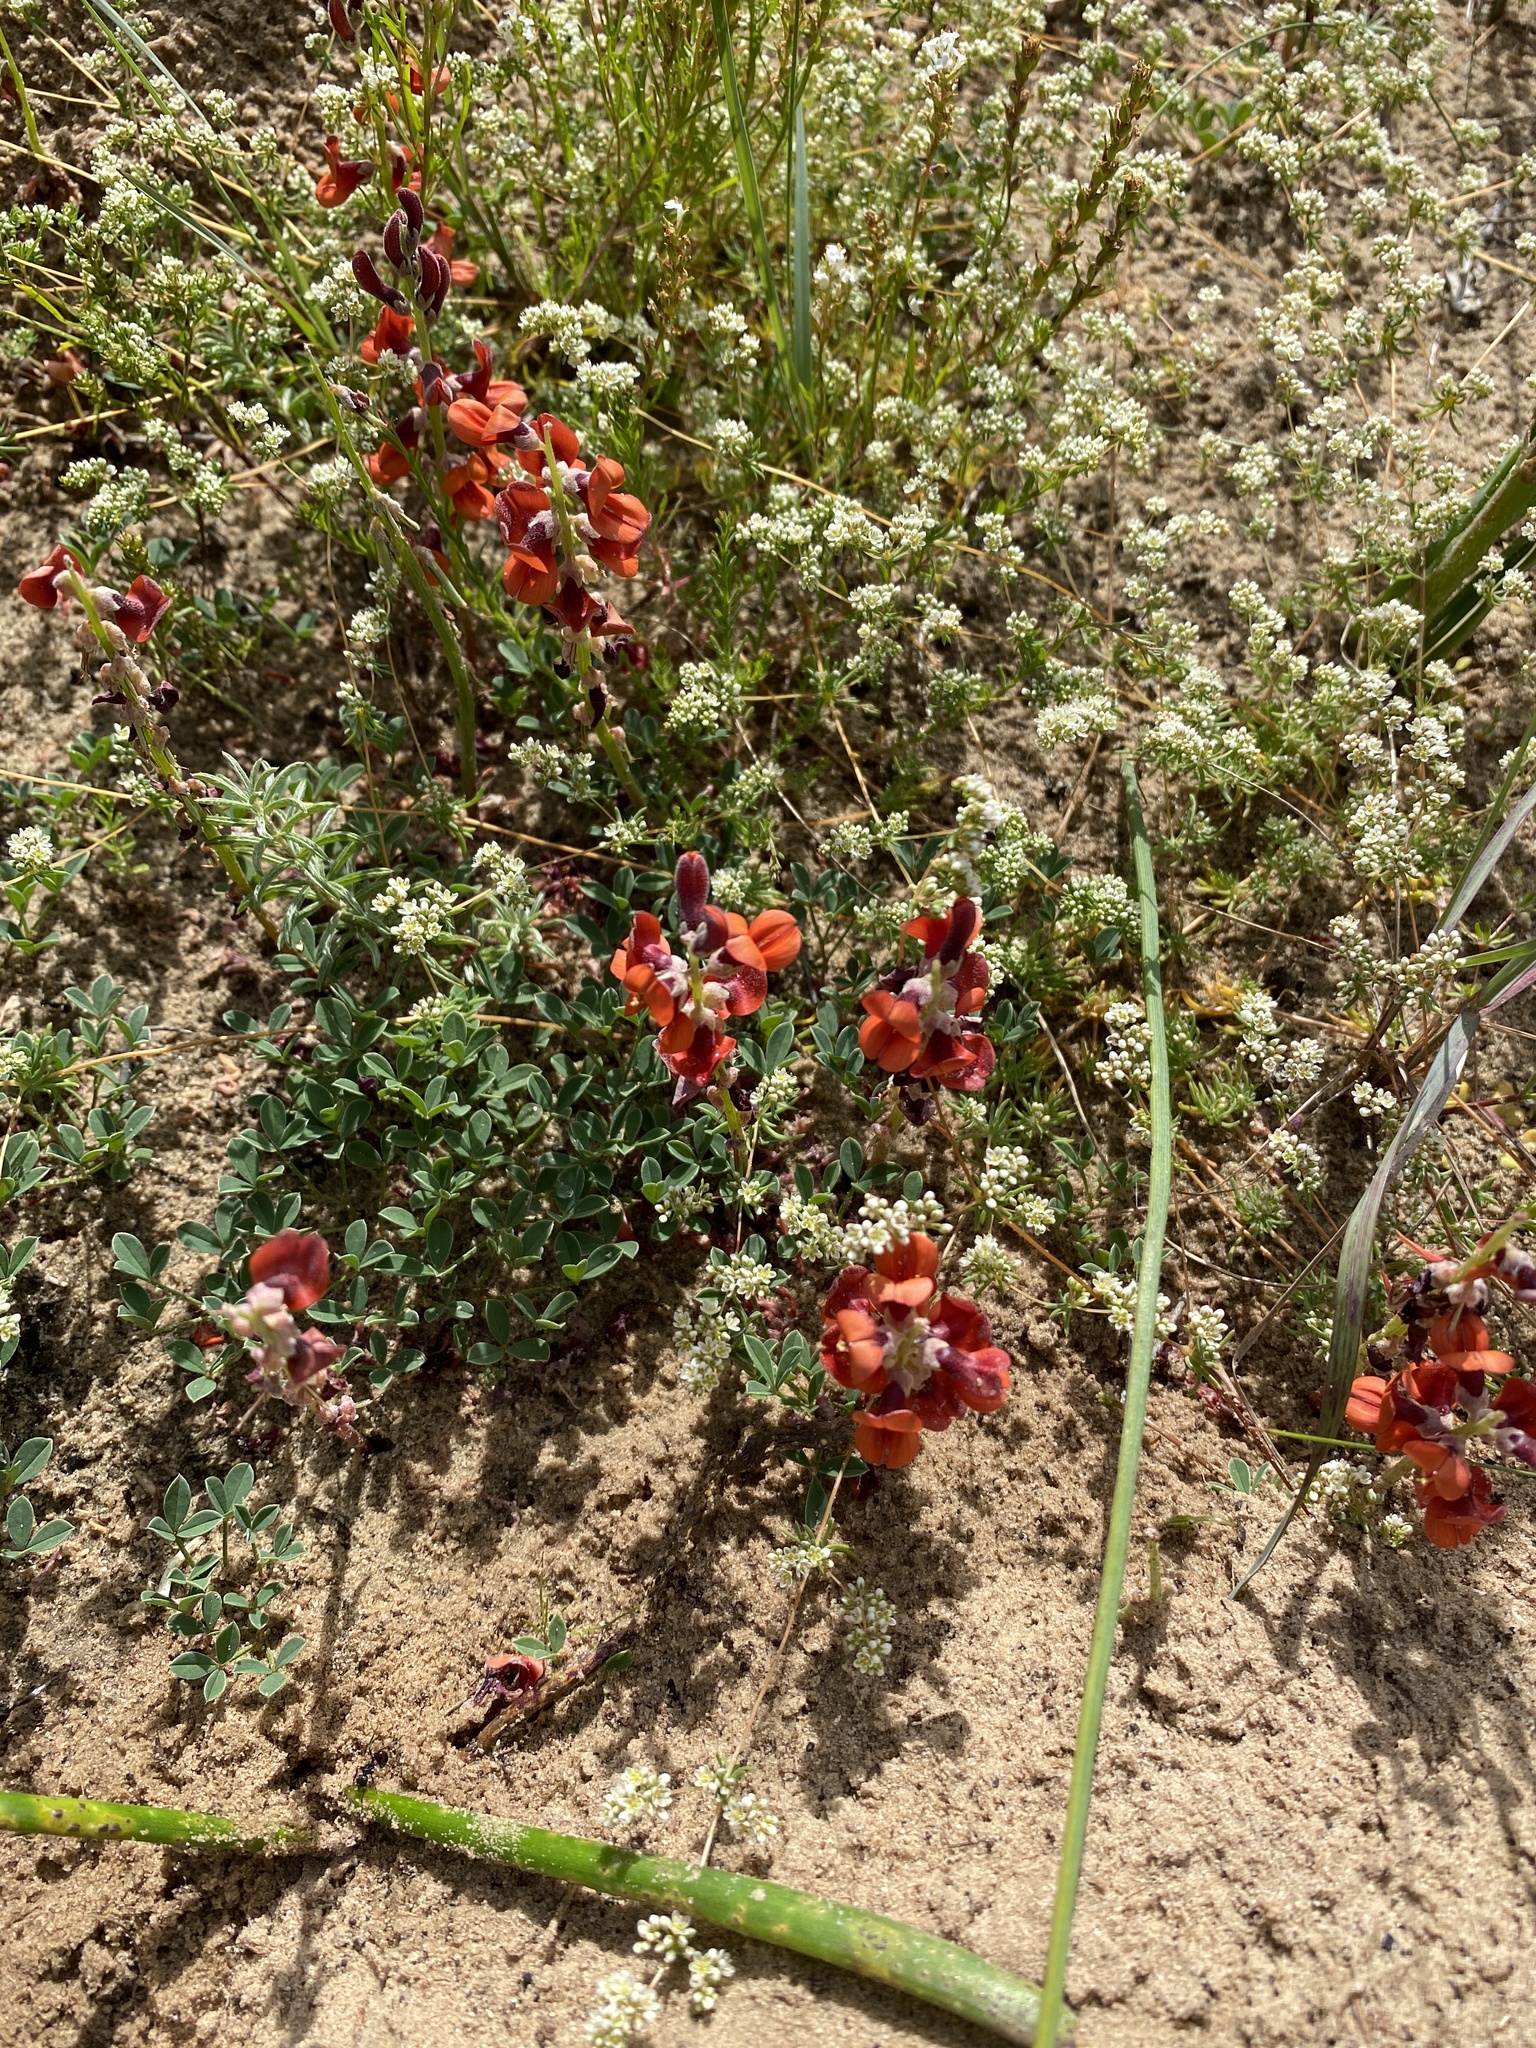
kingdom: Plantae
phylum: Tracheophyta
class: Magnoliopsida
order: Fabales
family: Fabaceae
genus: Indigofera
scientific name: Indigofera procumbens
